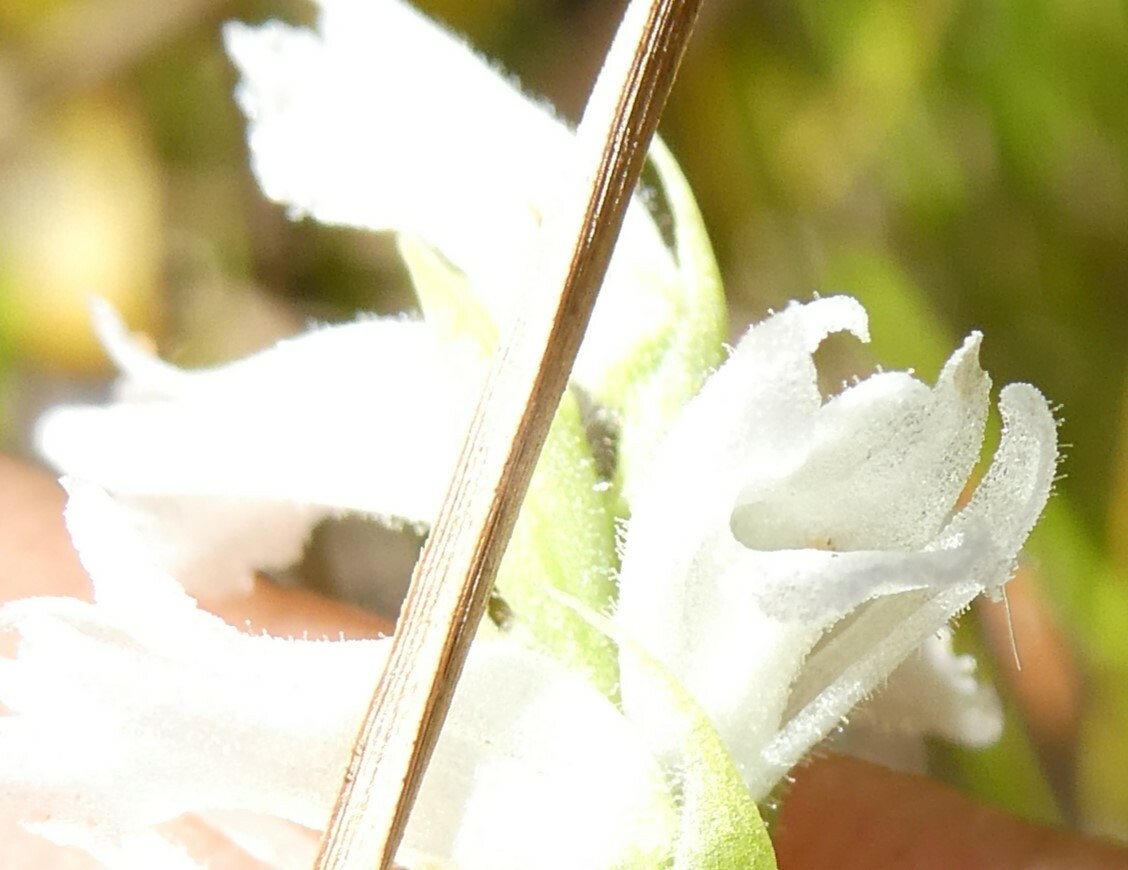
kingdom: Plantae
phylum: Tracheophyta
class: Liliopsida
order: Asparagales
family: Orchidaceae
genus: Spiranthes
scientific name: Spiranthes incurva
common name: Sphinx ladies'-tresses
